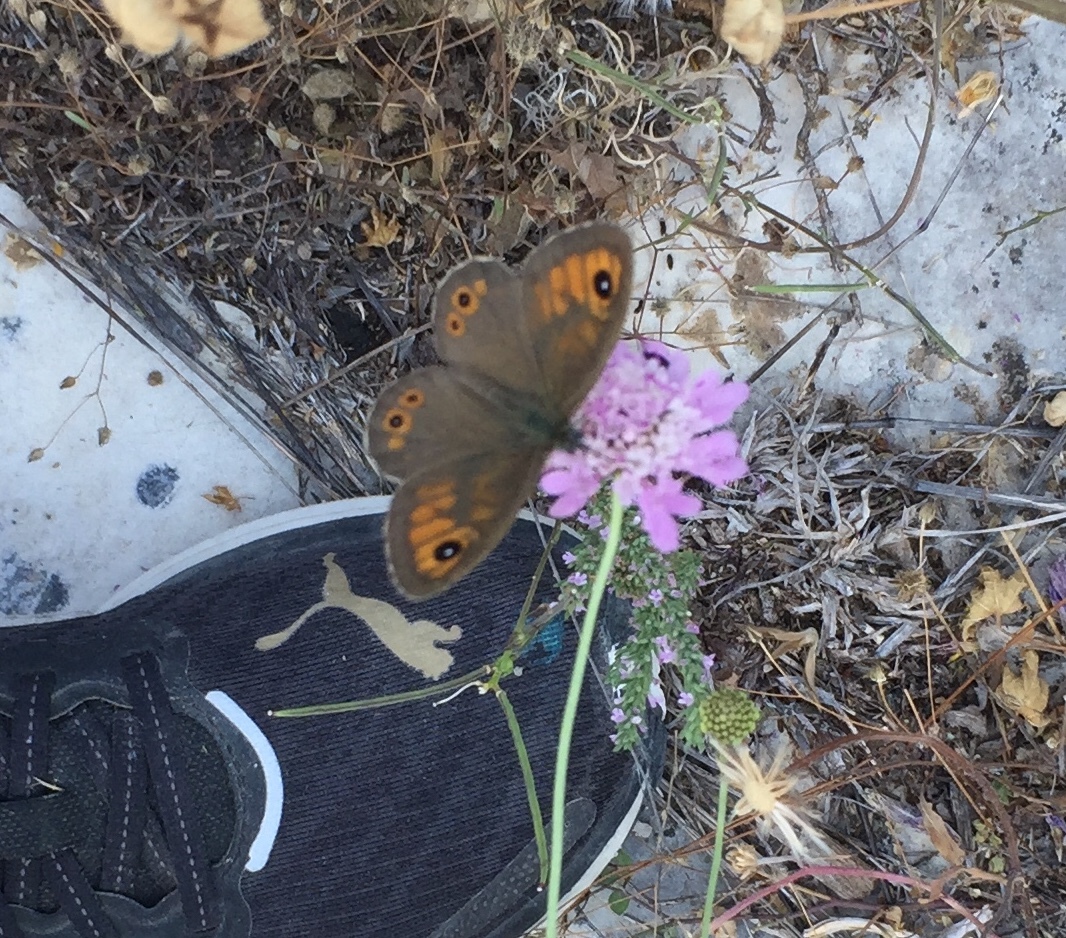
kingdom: Animalia
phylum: Arthropoda
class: Insecta
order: Lepidoptera
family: Nymphalidae
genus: Pararge
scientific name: Pararge Lasiommata maera
